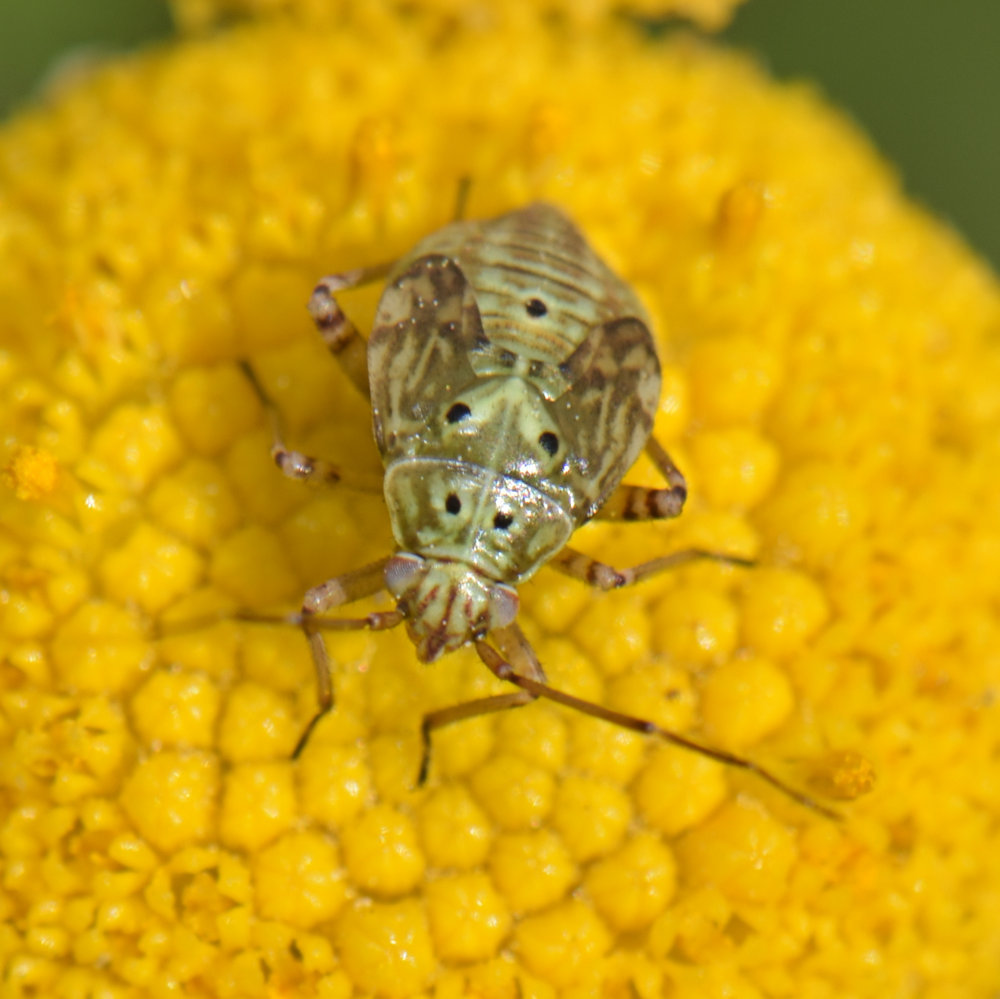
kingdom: Animalia
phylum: Arthropoda
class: Insecta
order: Hemiptera
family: Miridae
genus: Lygus
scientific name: Lygus lineolaris
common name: North american tarnished plant bug
